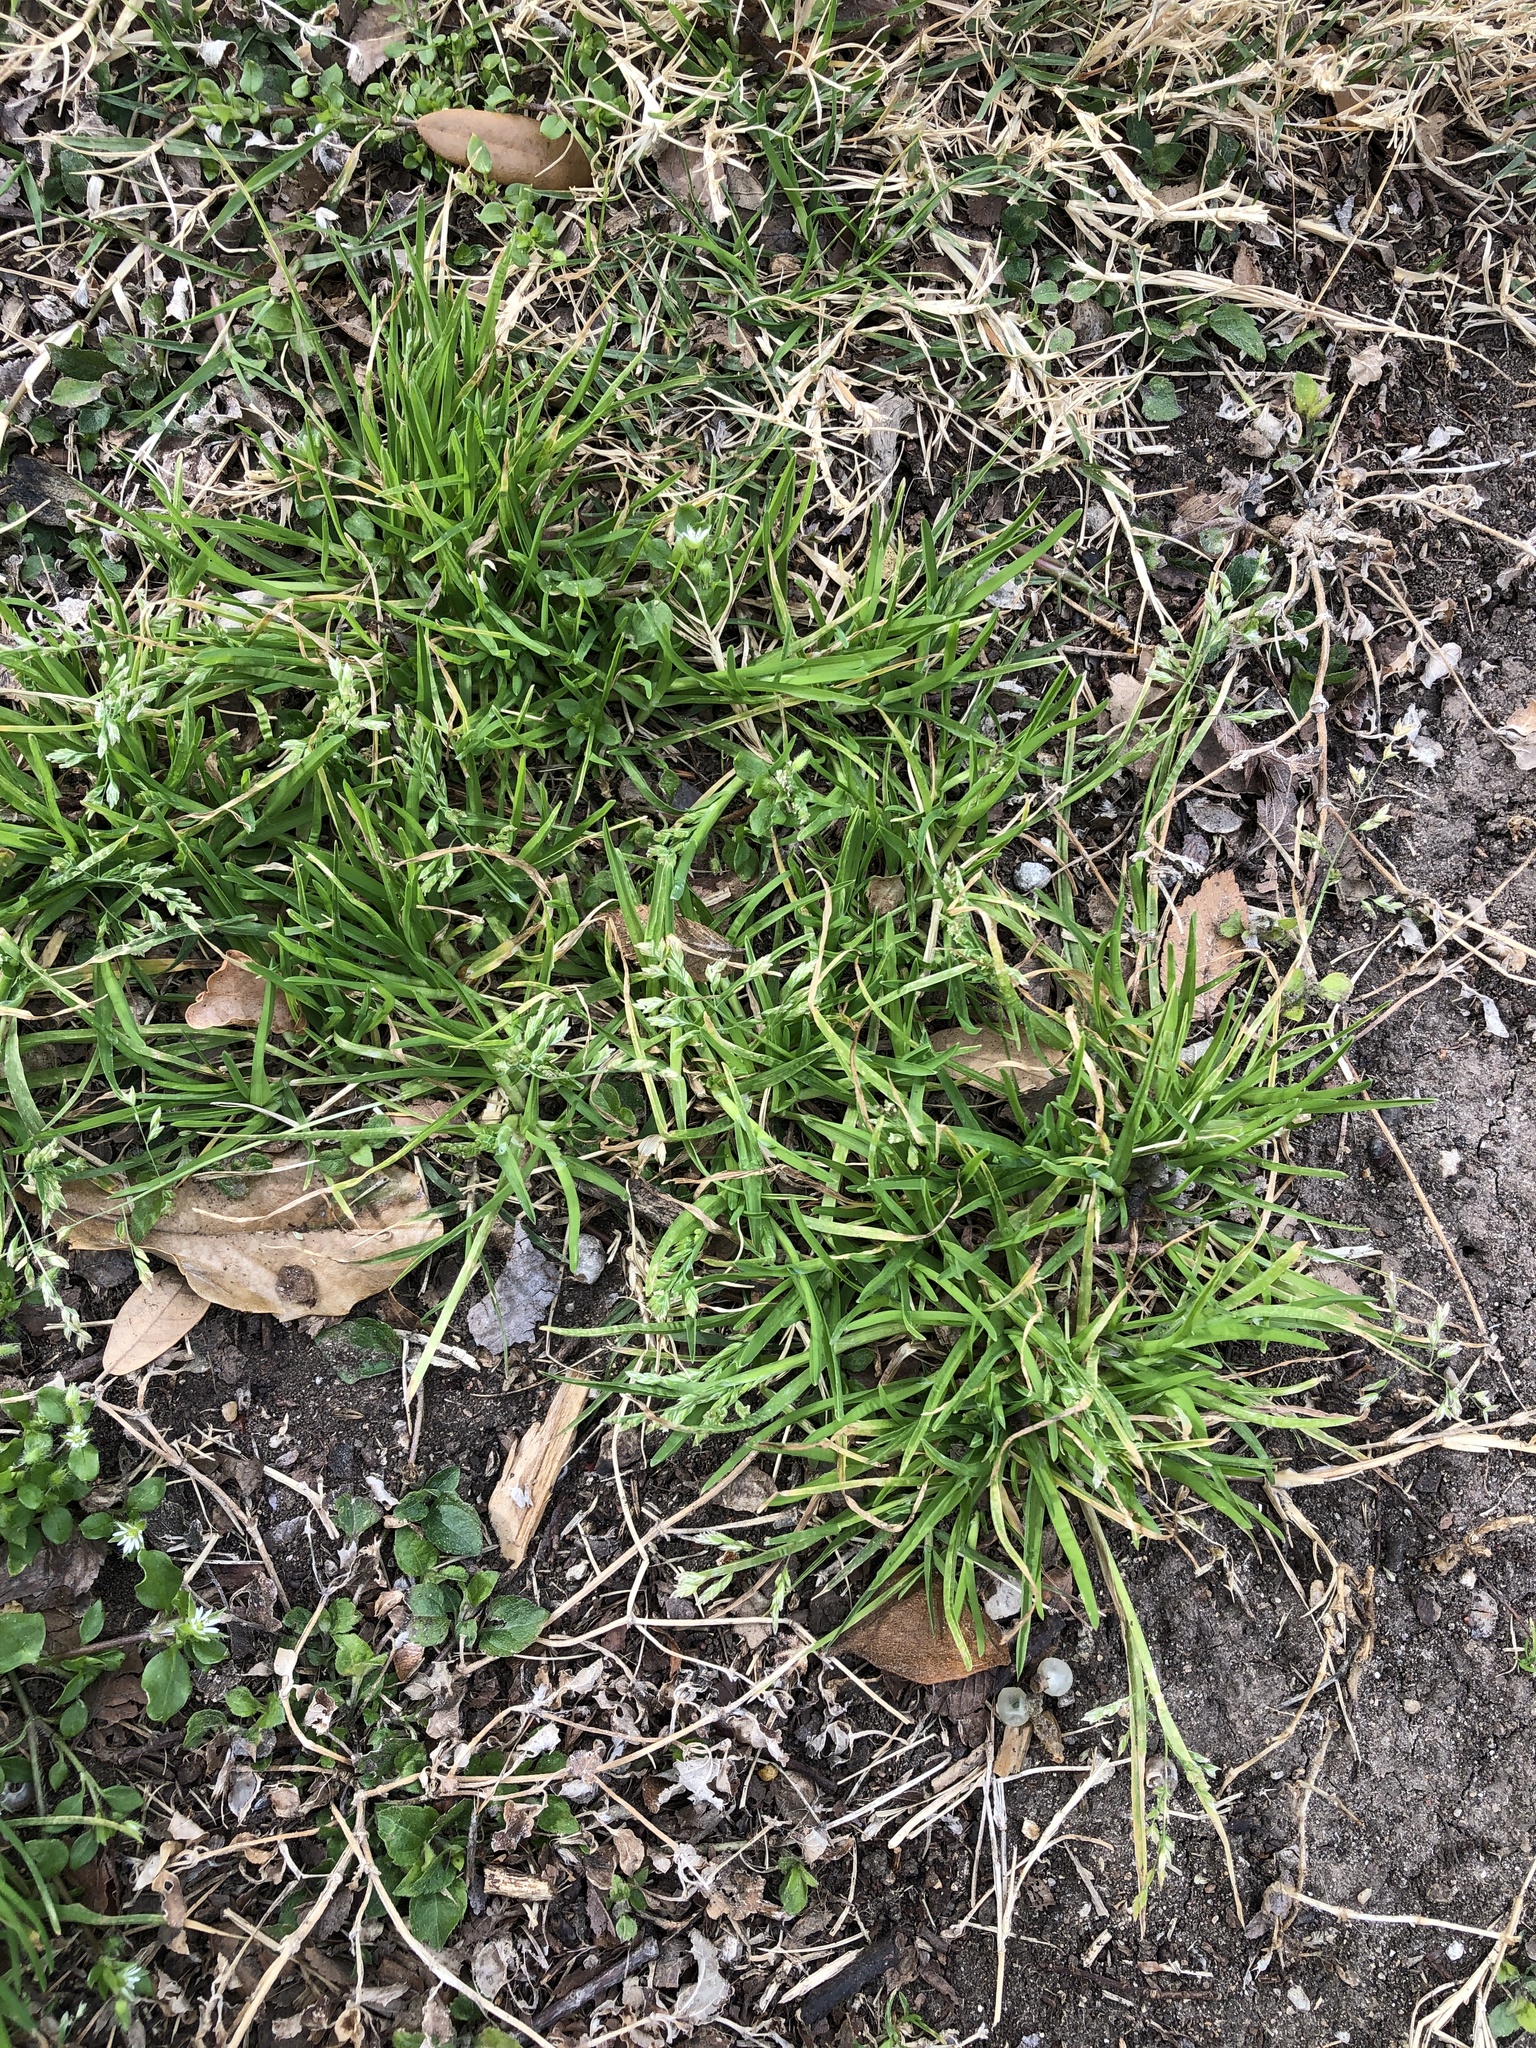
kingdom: Plantae
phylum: Tracheophyta
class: Liliopsida
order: Poales
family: Poaceae
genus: Poa
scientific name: Poa annua
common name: Annual bluegrass
